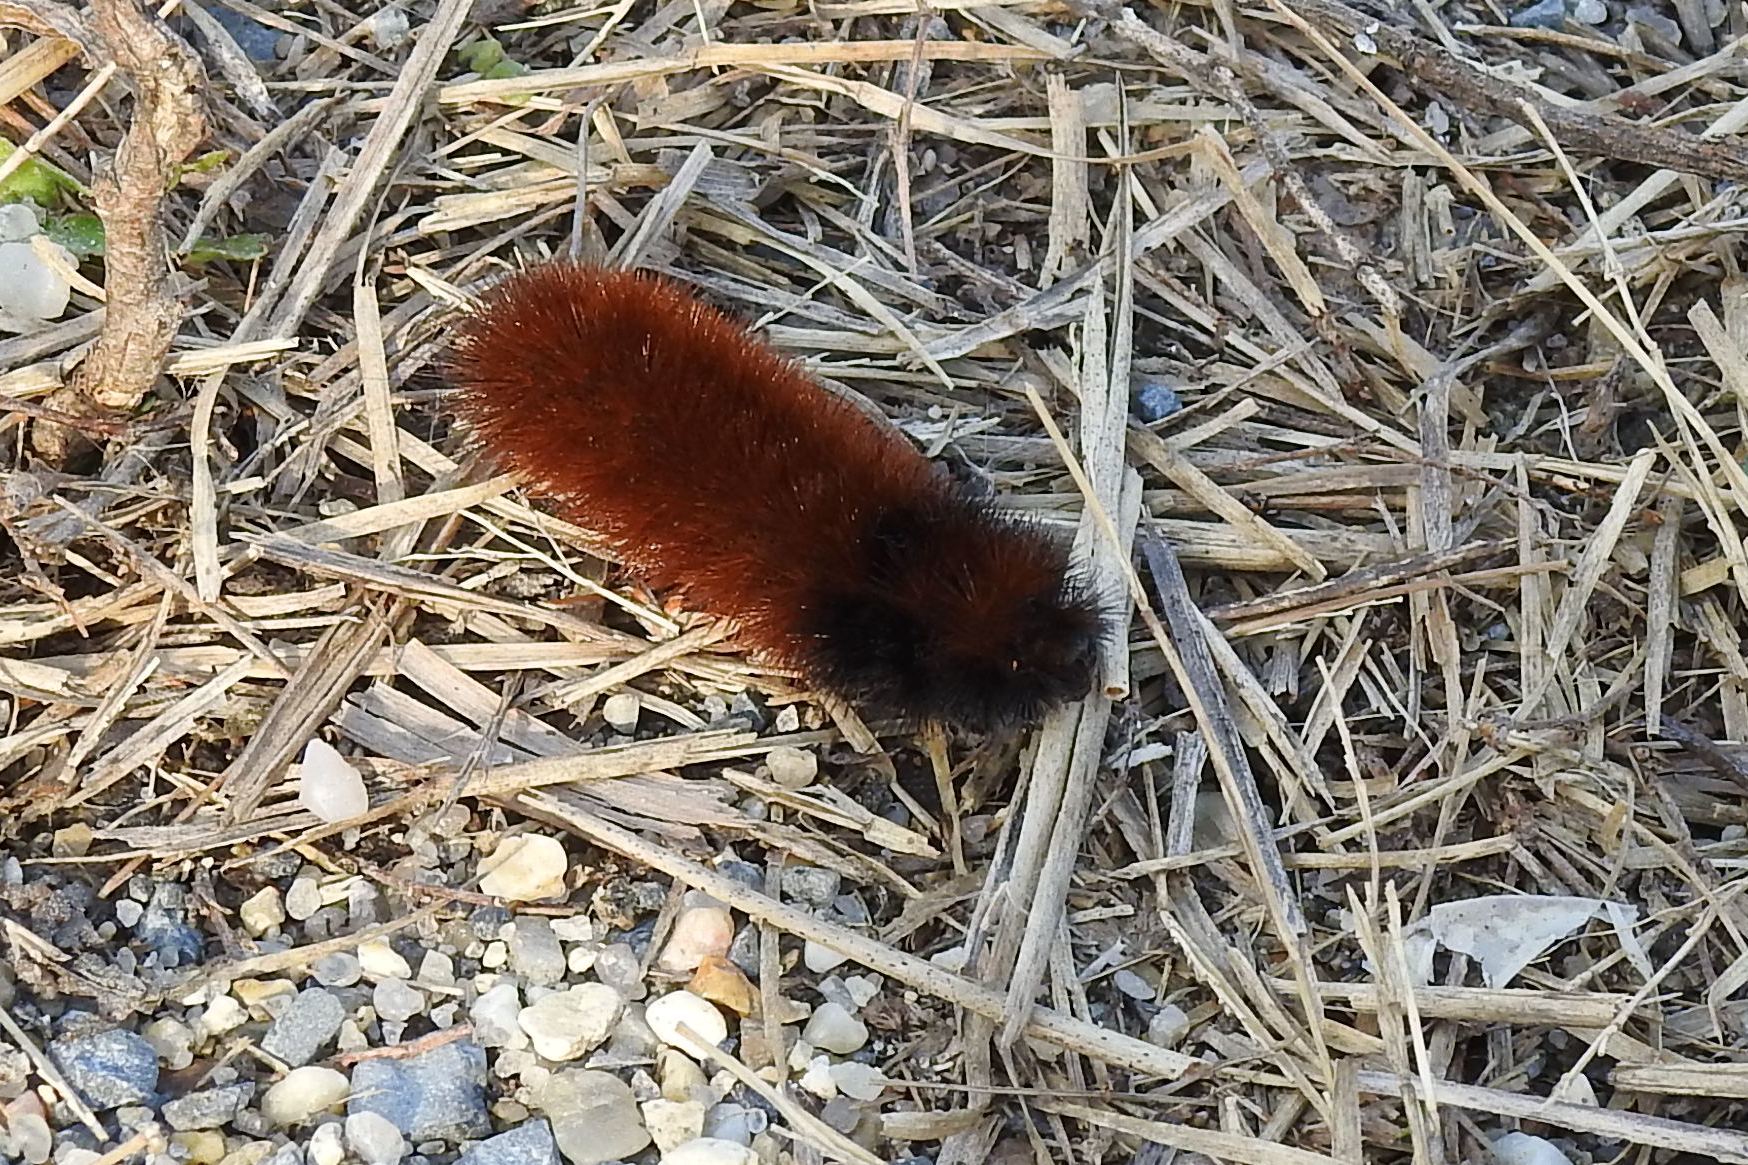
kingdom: Animalia
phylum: Arthropoda
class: Insecta
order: Lepidoptera
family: Erebidae
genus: Pyrrharctia
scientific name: Pyrrharctia isabella
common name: Isabella tiger moth
